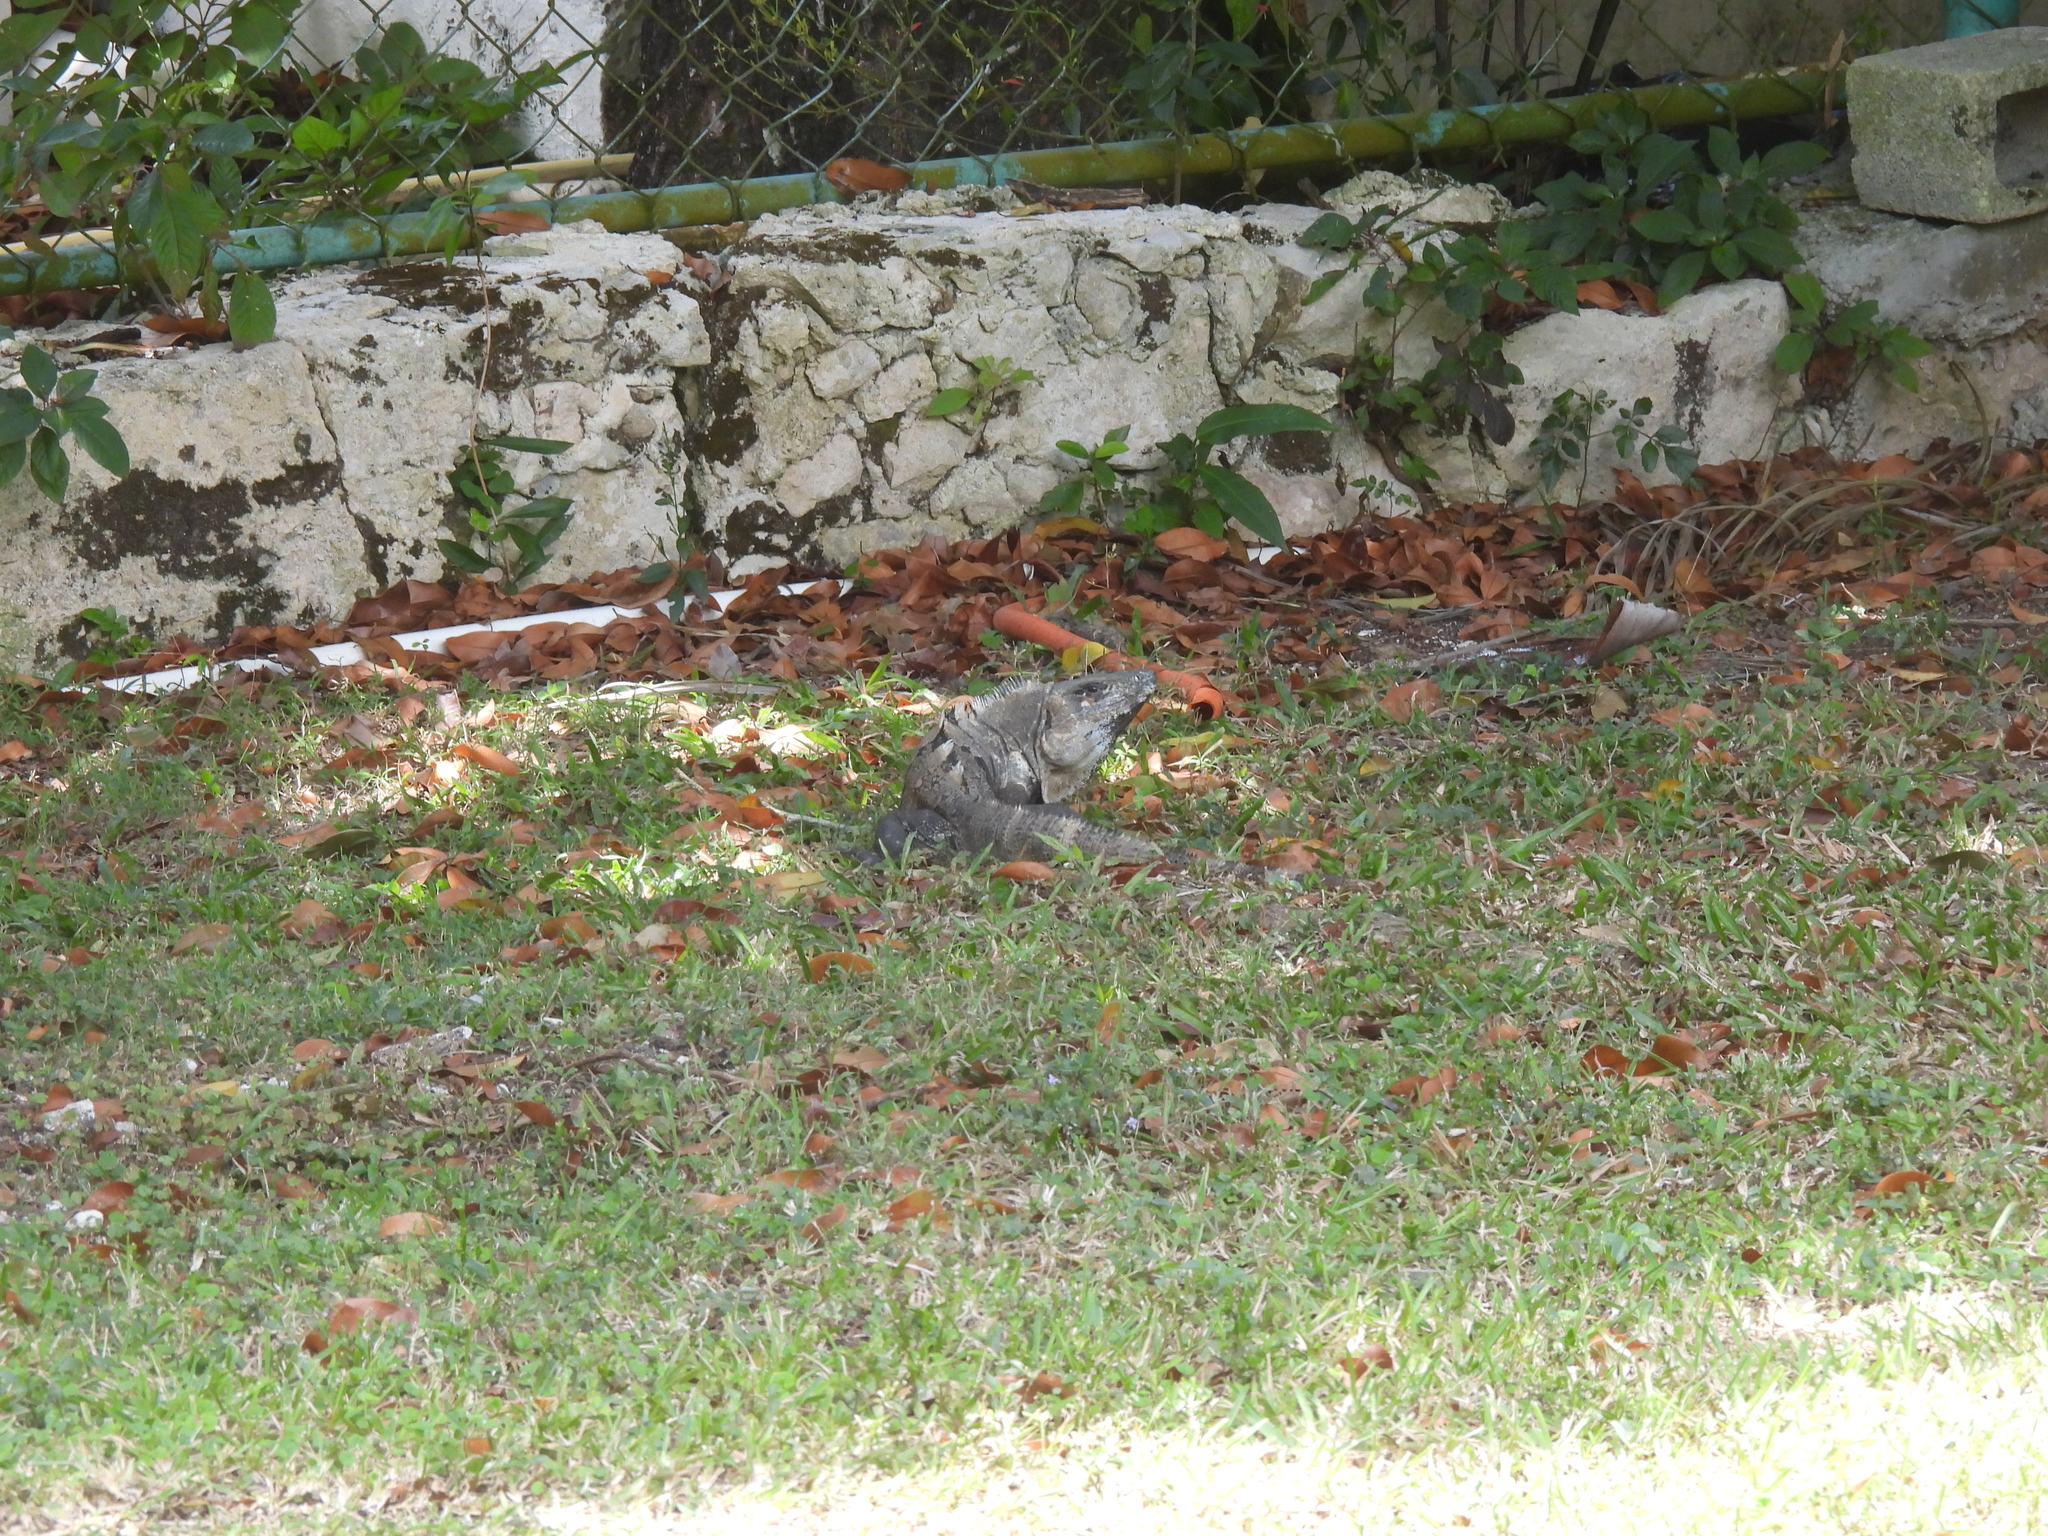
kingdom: Animalia
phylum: Chordata
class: Squamata
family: Iguanidae
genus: Ctenosaura
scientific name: Ctenosaura similis
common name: Black spiny-tailed iguana
